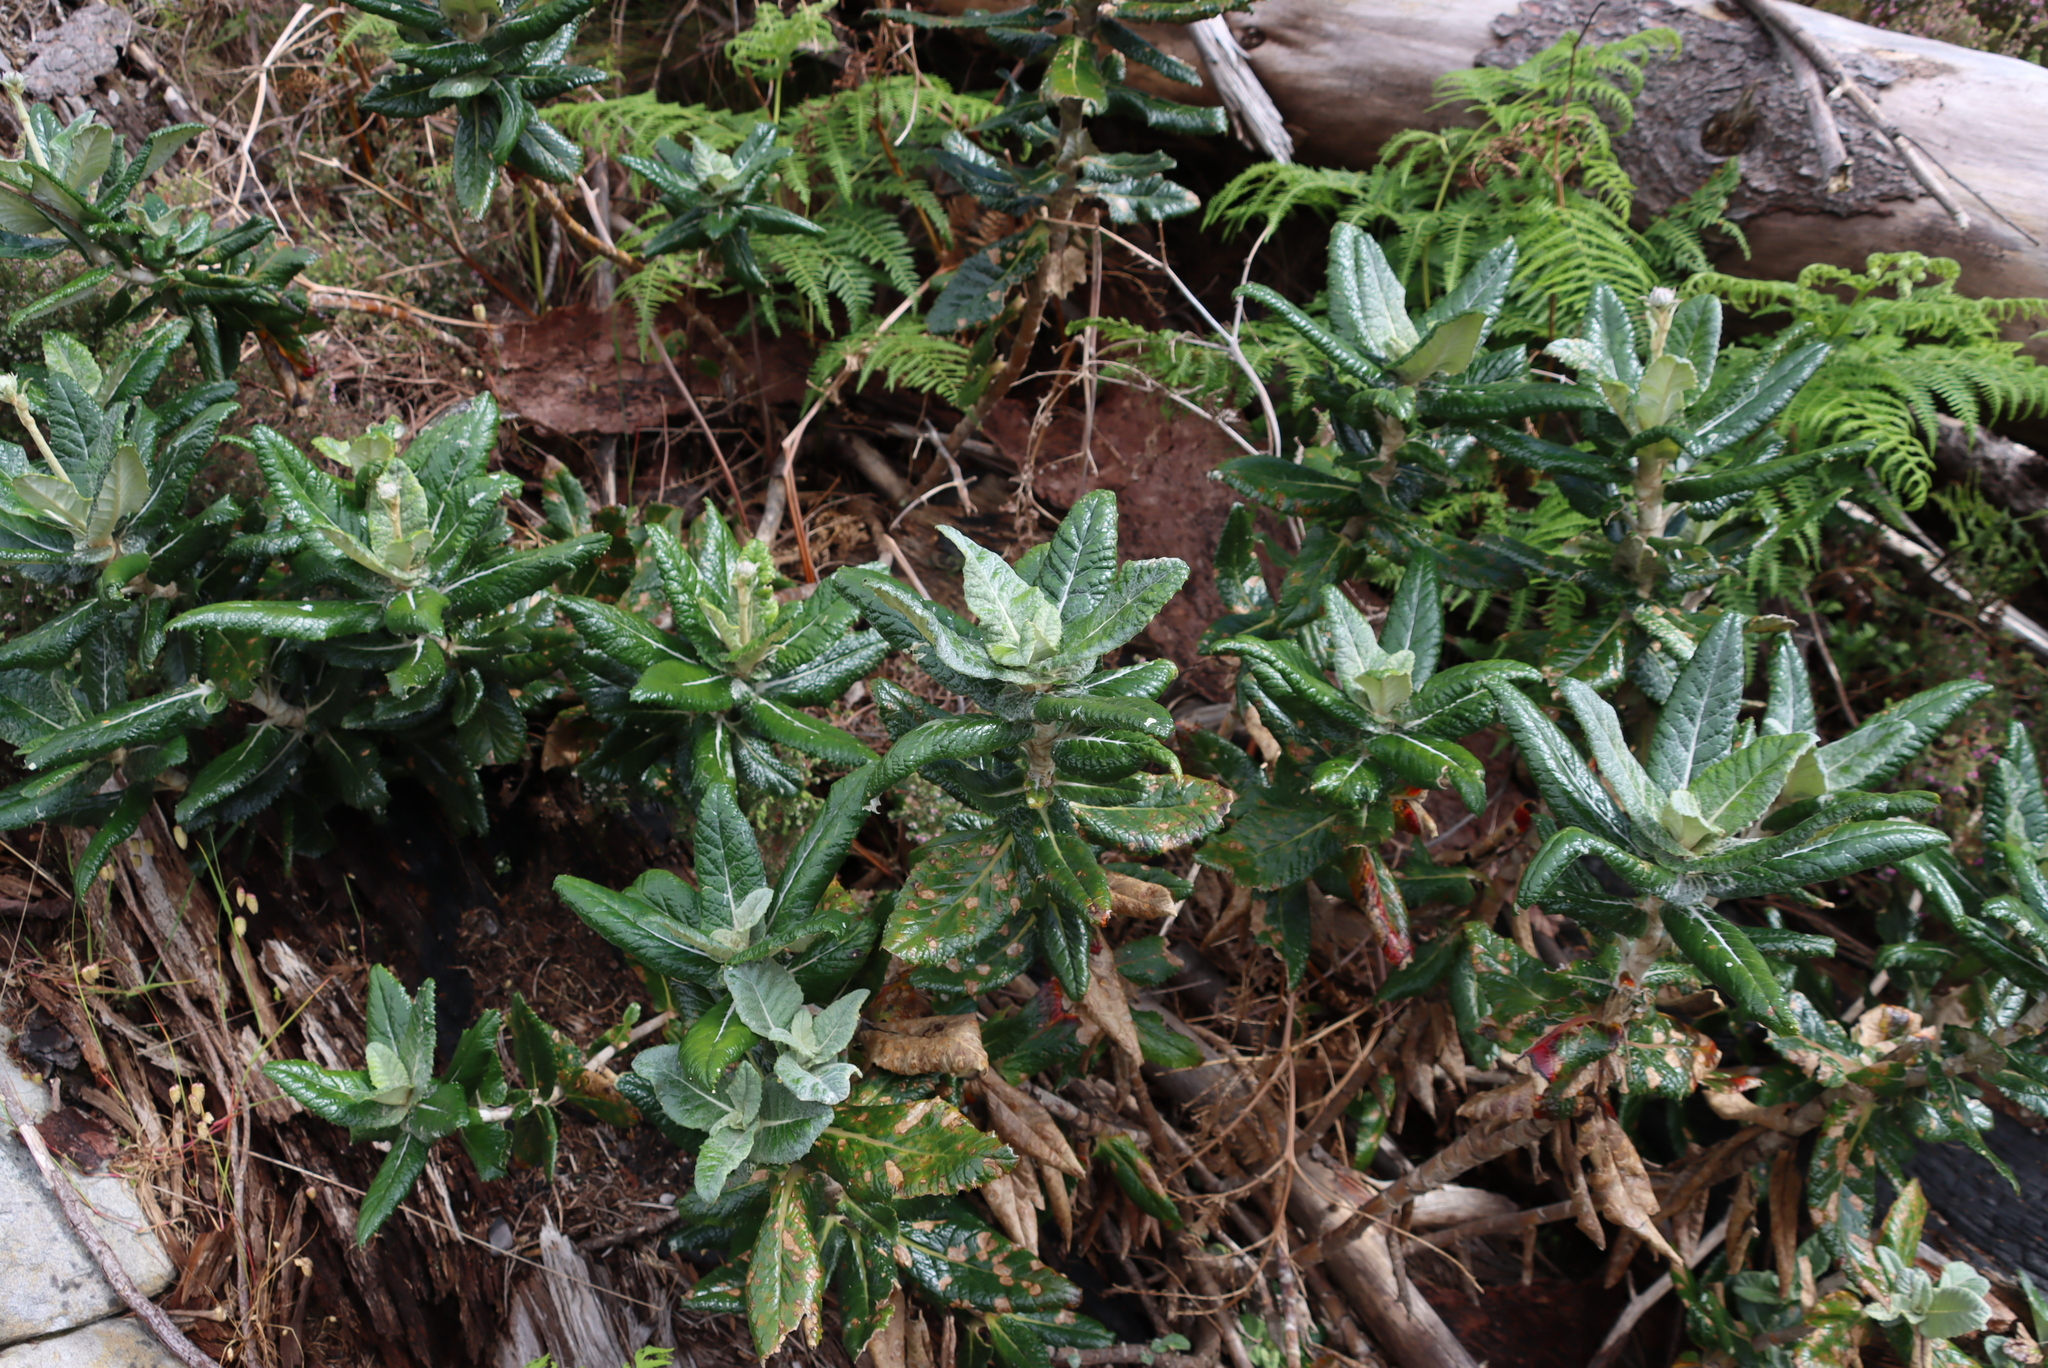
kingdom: Plantae
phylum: Tracheophyta
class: Magnoliopsida
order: Apiales
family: Apiaceae
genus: Hermas
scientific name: Hermas villosa
